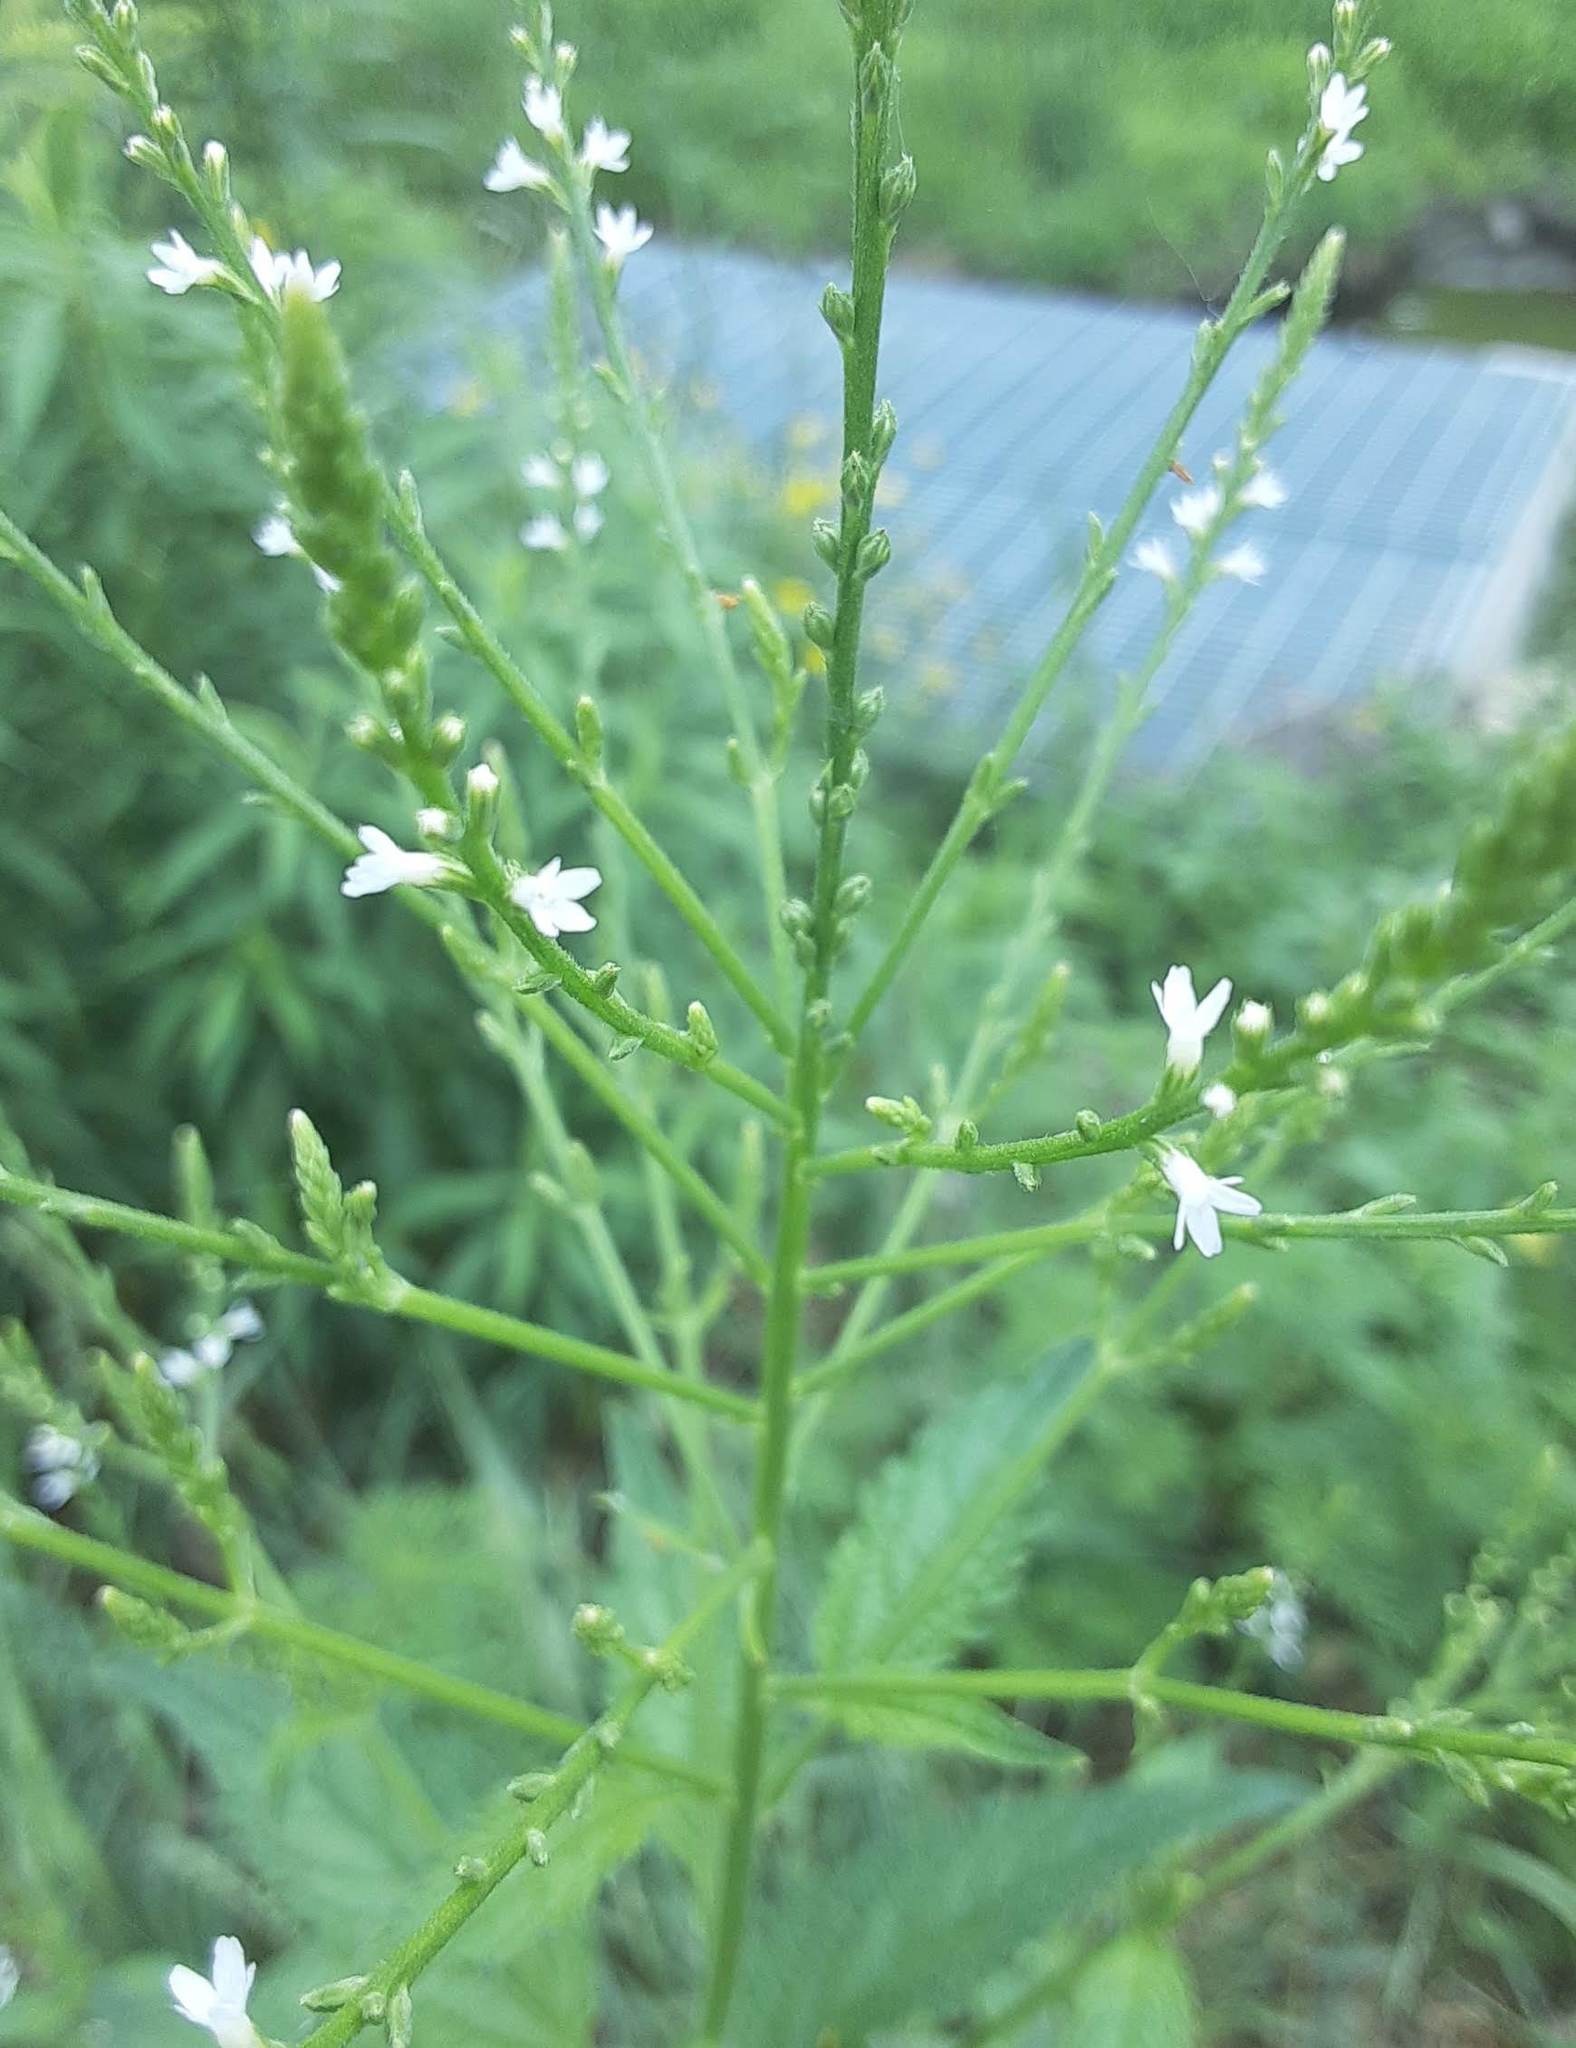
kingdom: Plantae
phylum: Tracheophyta
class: Magnoliopsida
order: Lamiales
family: Verbenaceae
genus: Verbena
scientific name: Verbena urticifolia
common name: Nettle-leaved vervain
